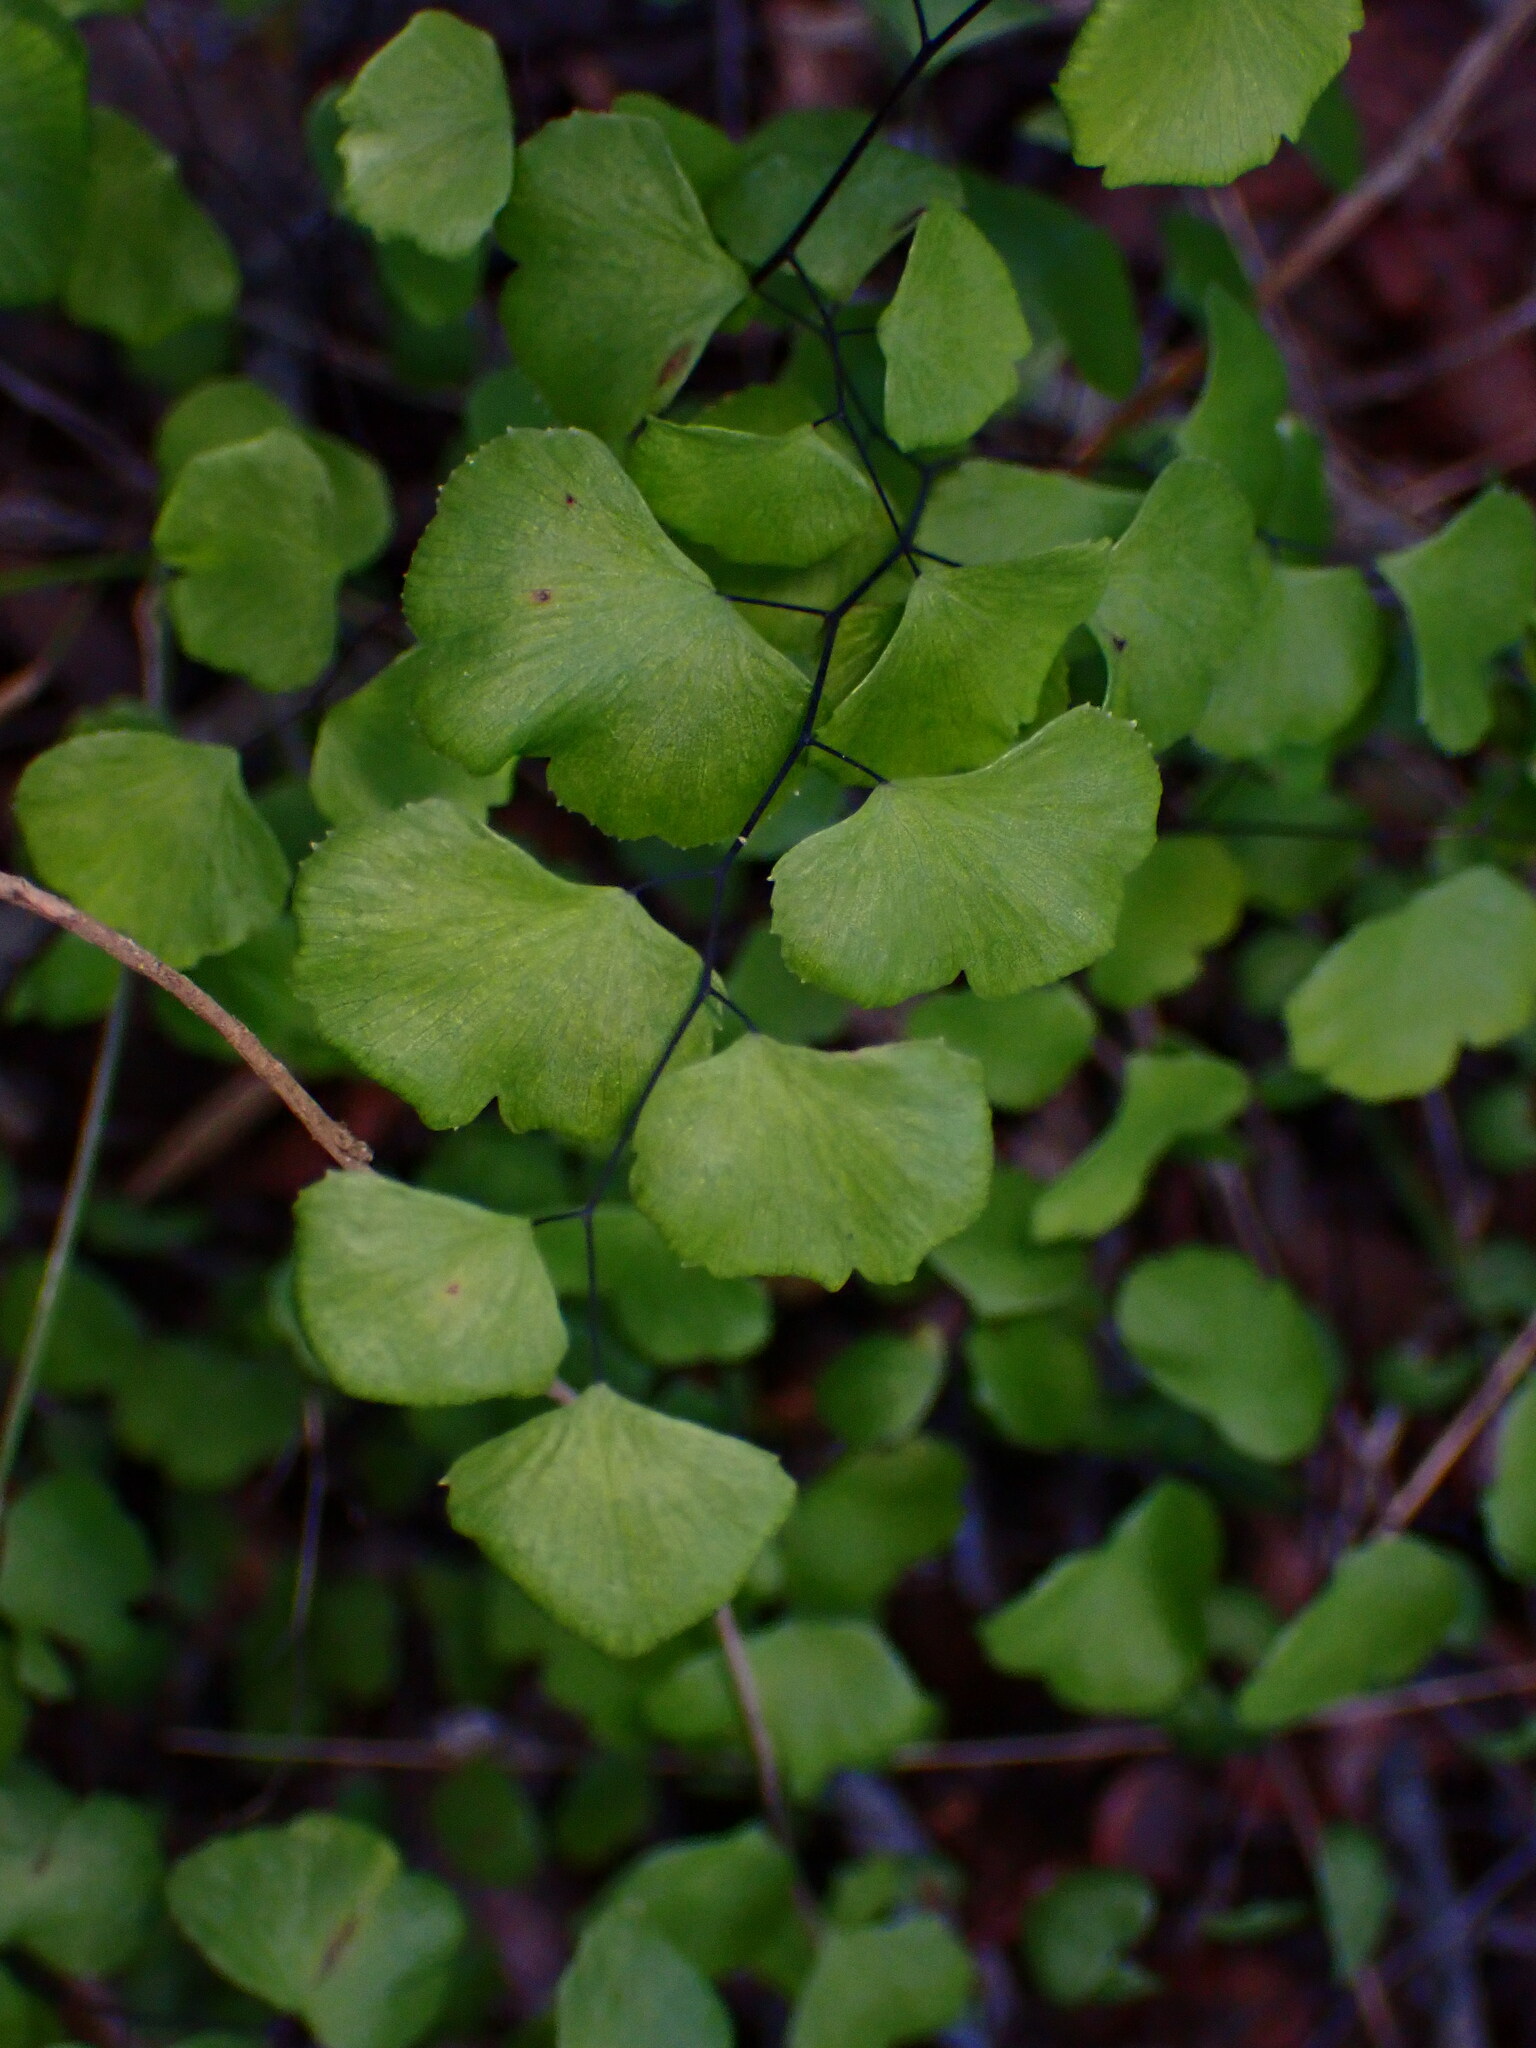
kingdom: Plantae
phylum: Tracheophyta
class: Polypodiopsida
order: Polypodiales
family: Pteridaceae
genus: Adiantum
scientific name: Adiantum jordanii
